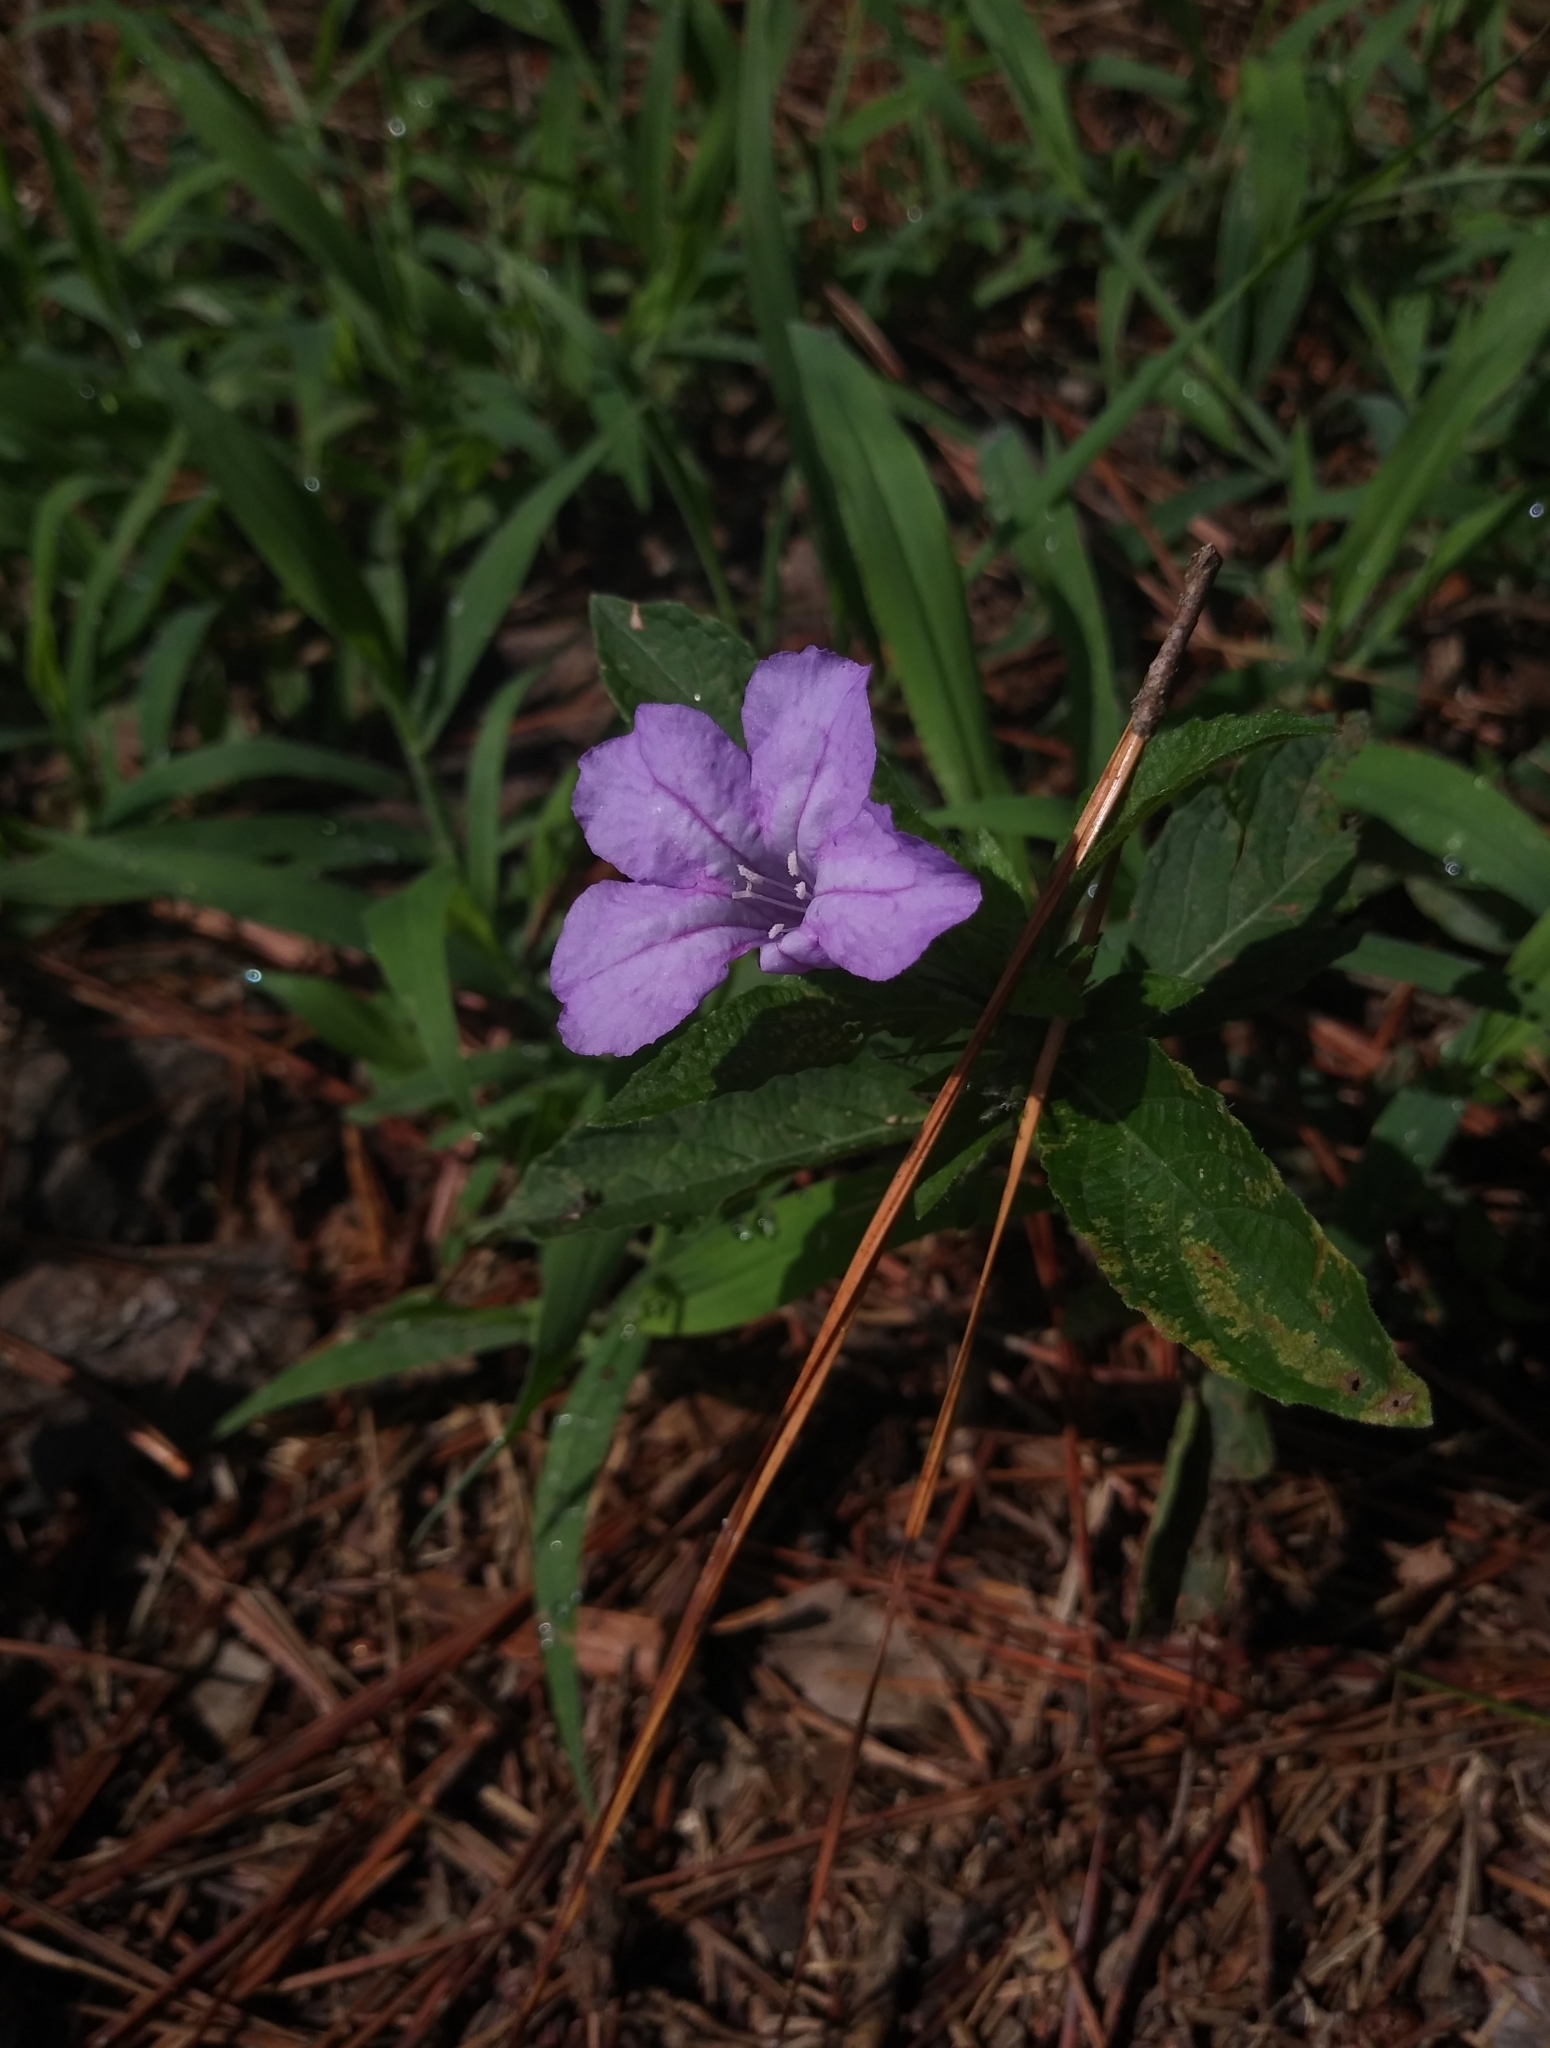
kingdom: Plantae
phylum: Tracheophyta
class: Magnoliopsida
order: Lamiales
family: Acanthaceae
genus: Ruellia
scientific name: Ruellia caroliniensis
